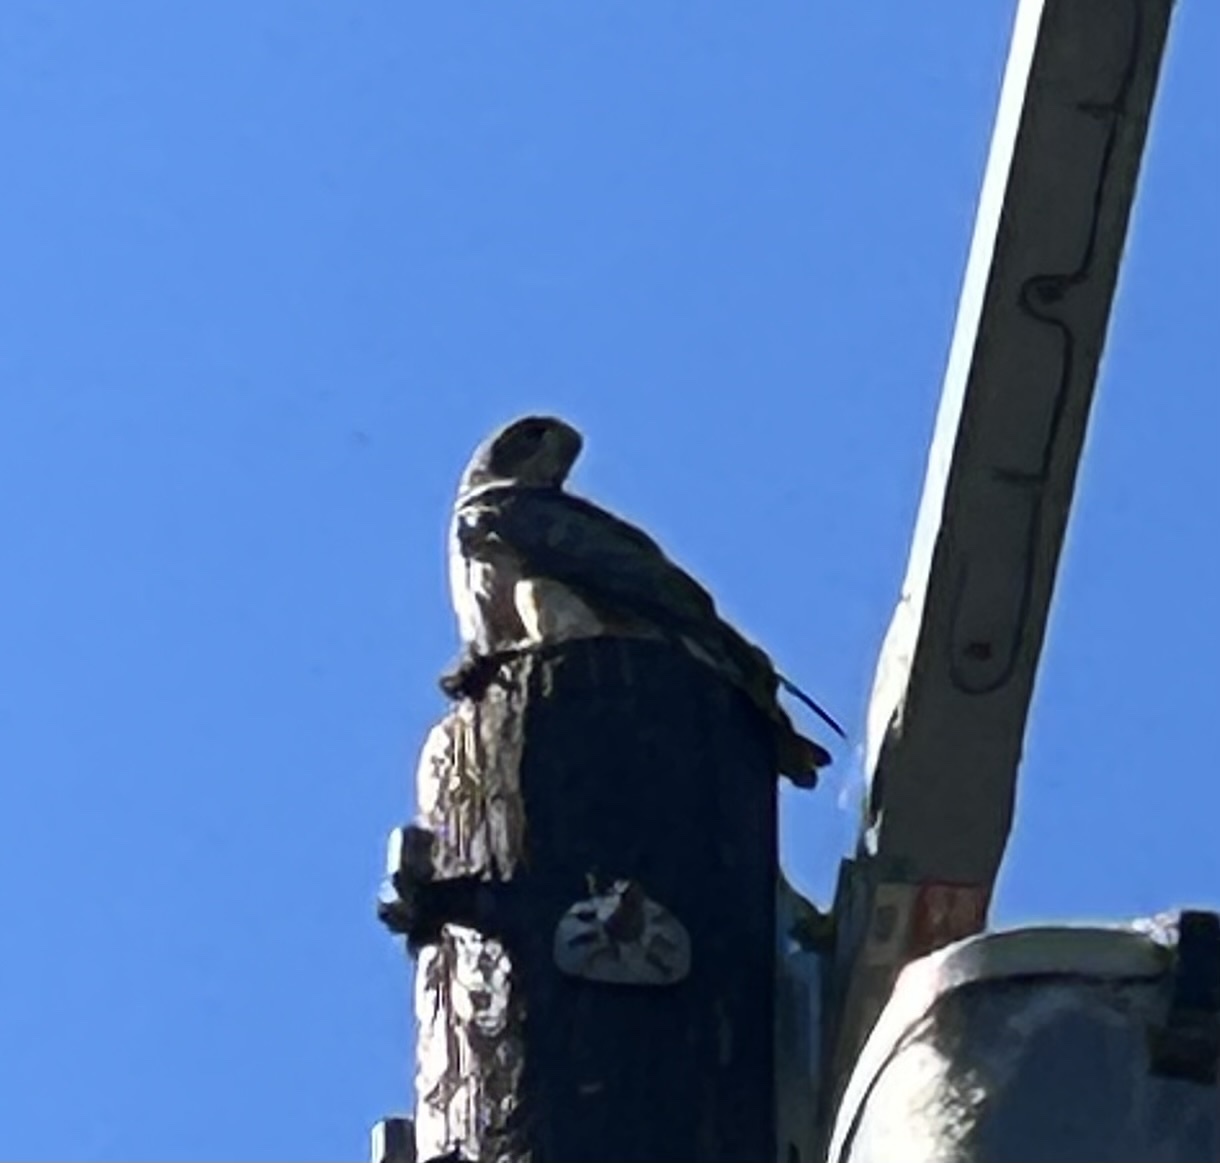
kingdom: Animalia
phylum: Chordata
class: Aves
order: Accipitriformes
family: Accipitridae
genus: Buteo
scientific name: Buteo jamaicensis
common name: Red-tailed hawk
